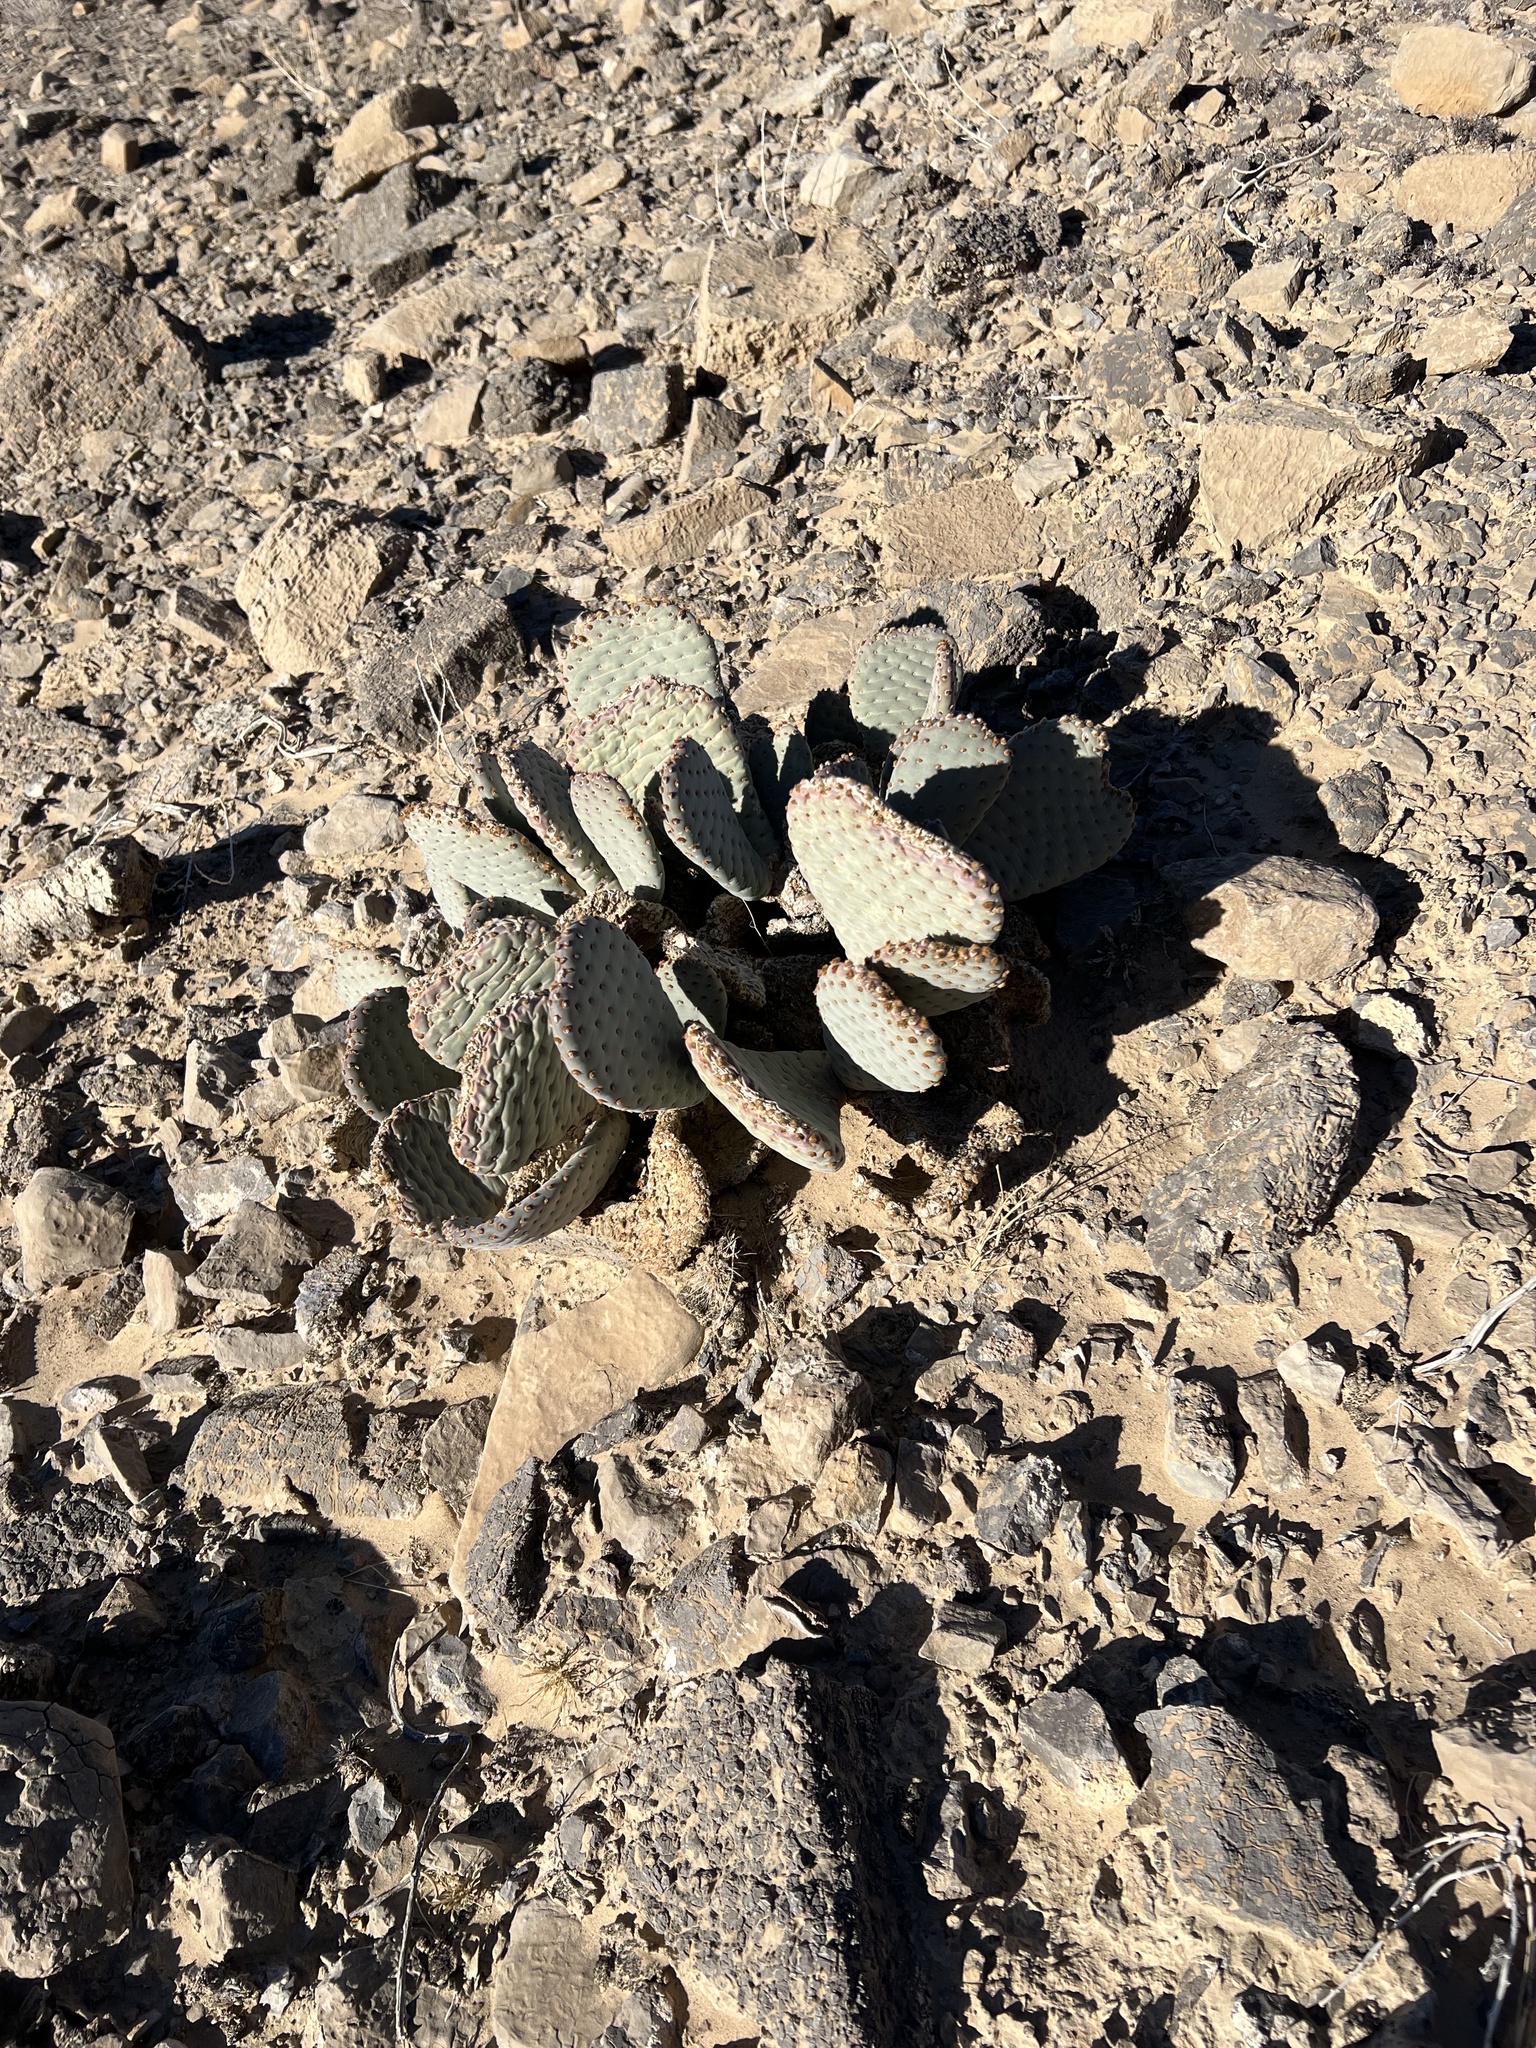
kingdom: Plantae
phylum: Tracheophyta
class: Magnoliopsida
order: Caryophyllales
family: Cactaceae
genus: Opuntia
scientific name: Opuntia basilaris
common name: Beavertail prickly-pear
